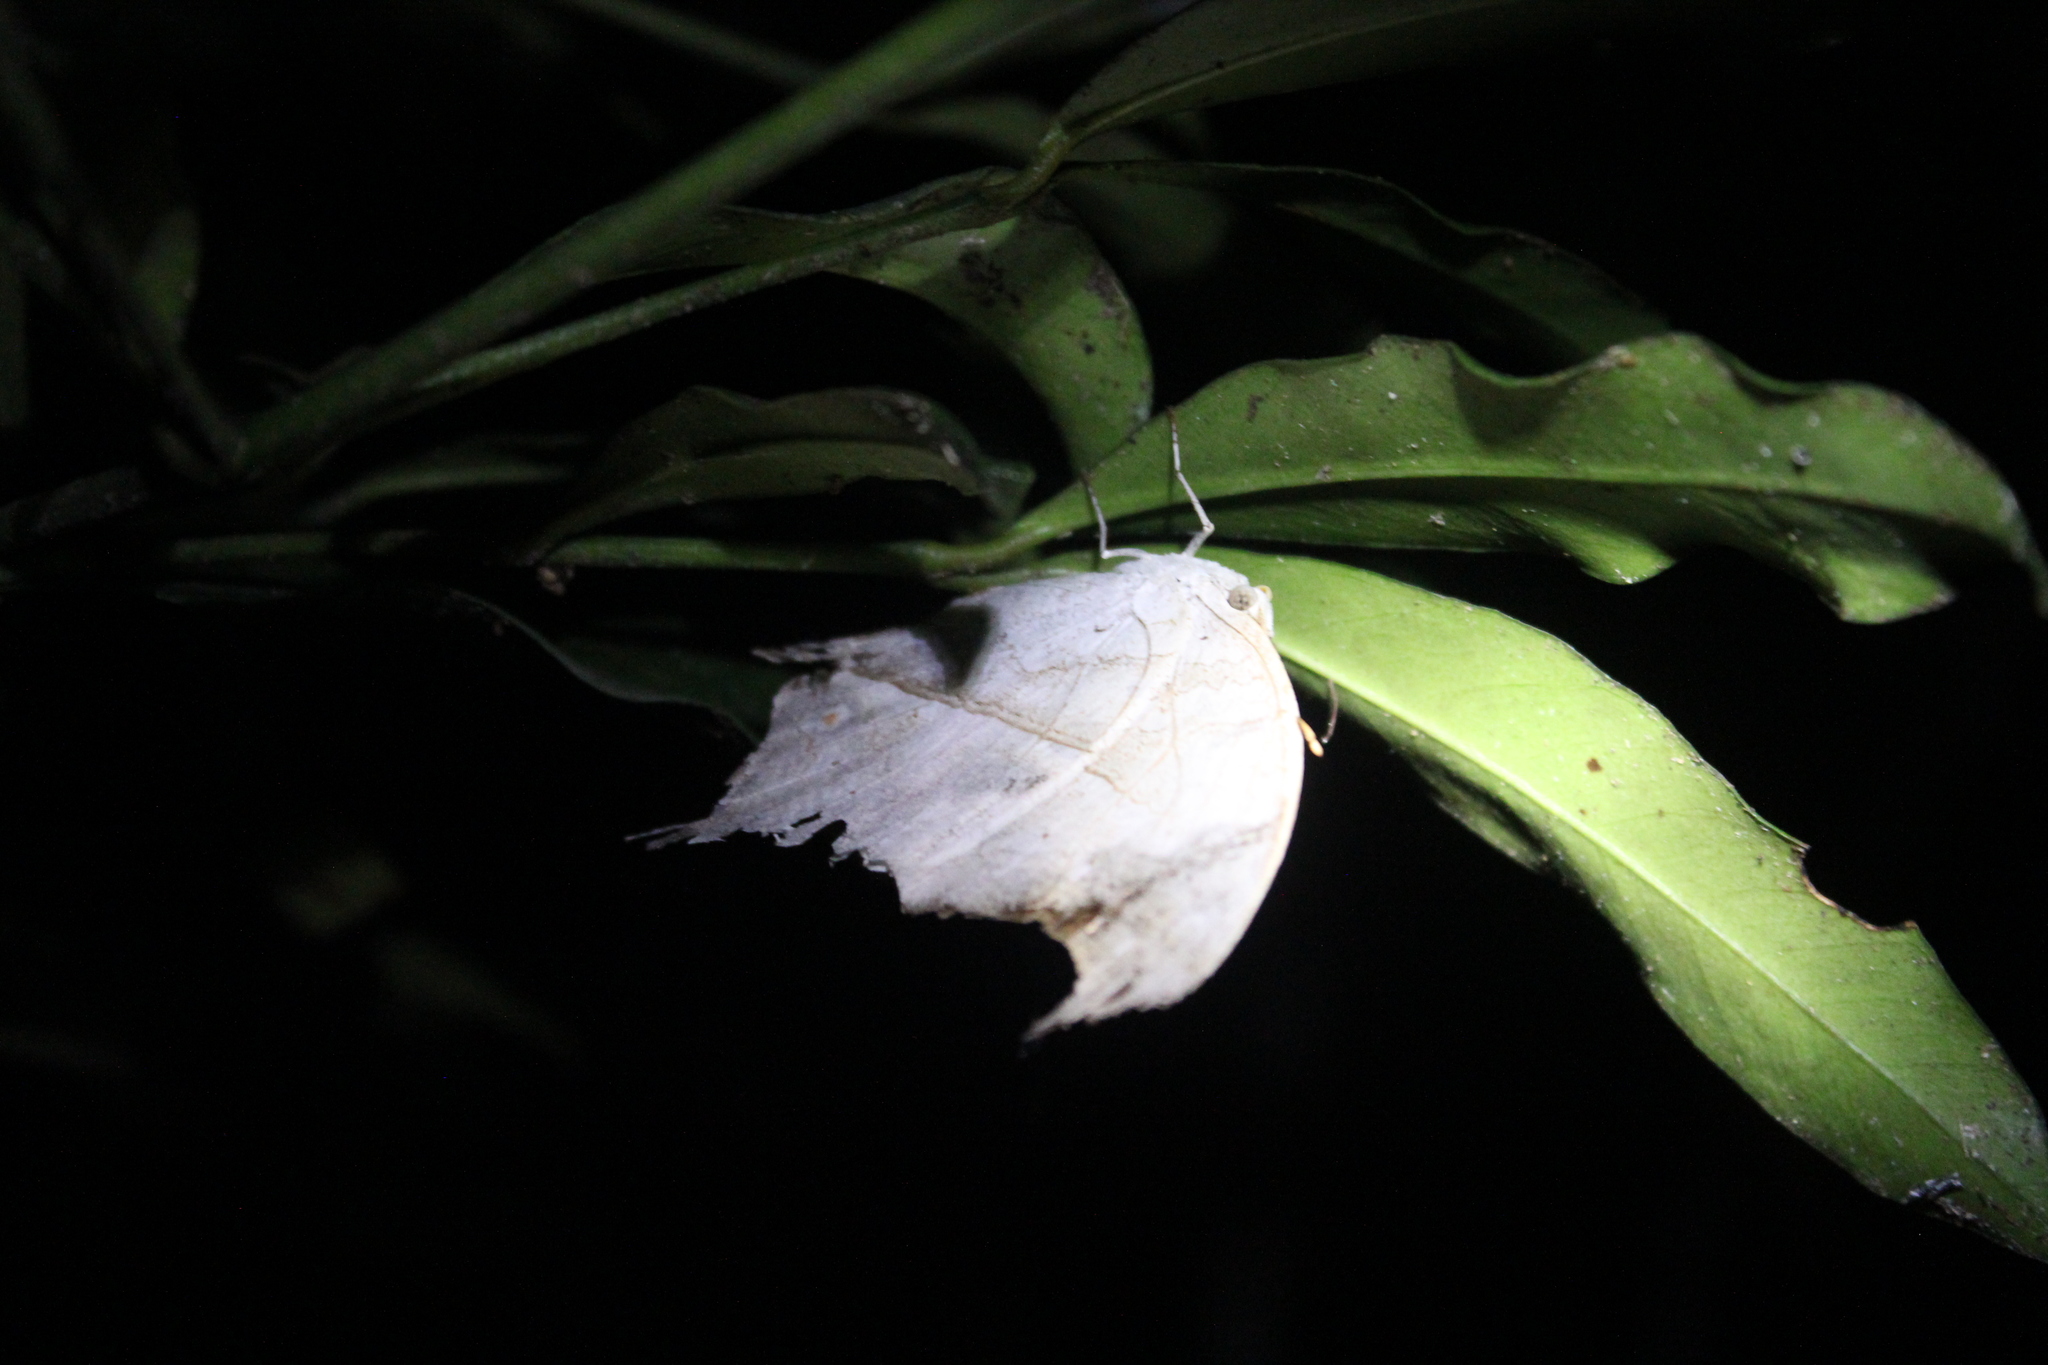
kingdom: Animalia
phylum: Arthropoda
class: Insecta
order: Lepidoptera
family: Nymphalidae
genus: Salamis
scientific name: Salamis Protogoniomorpha duprei
